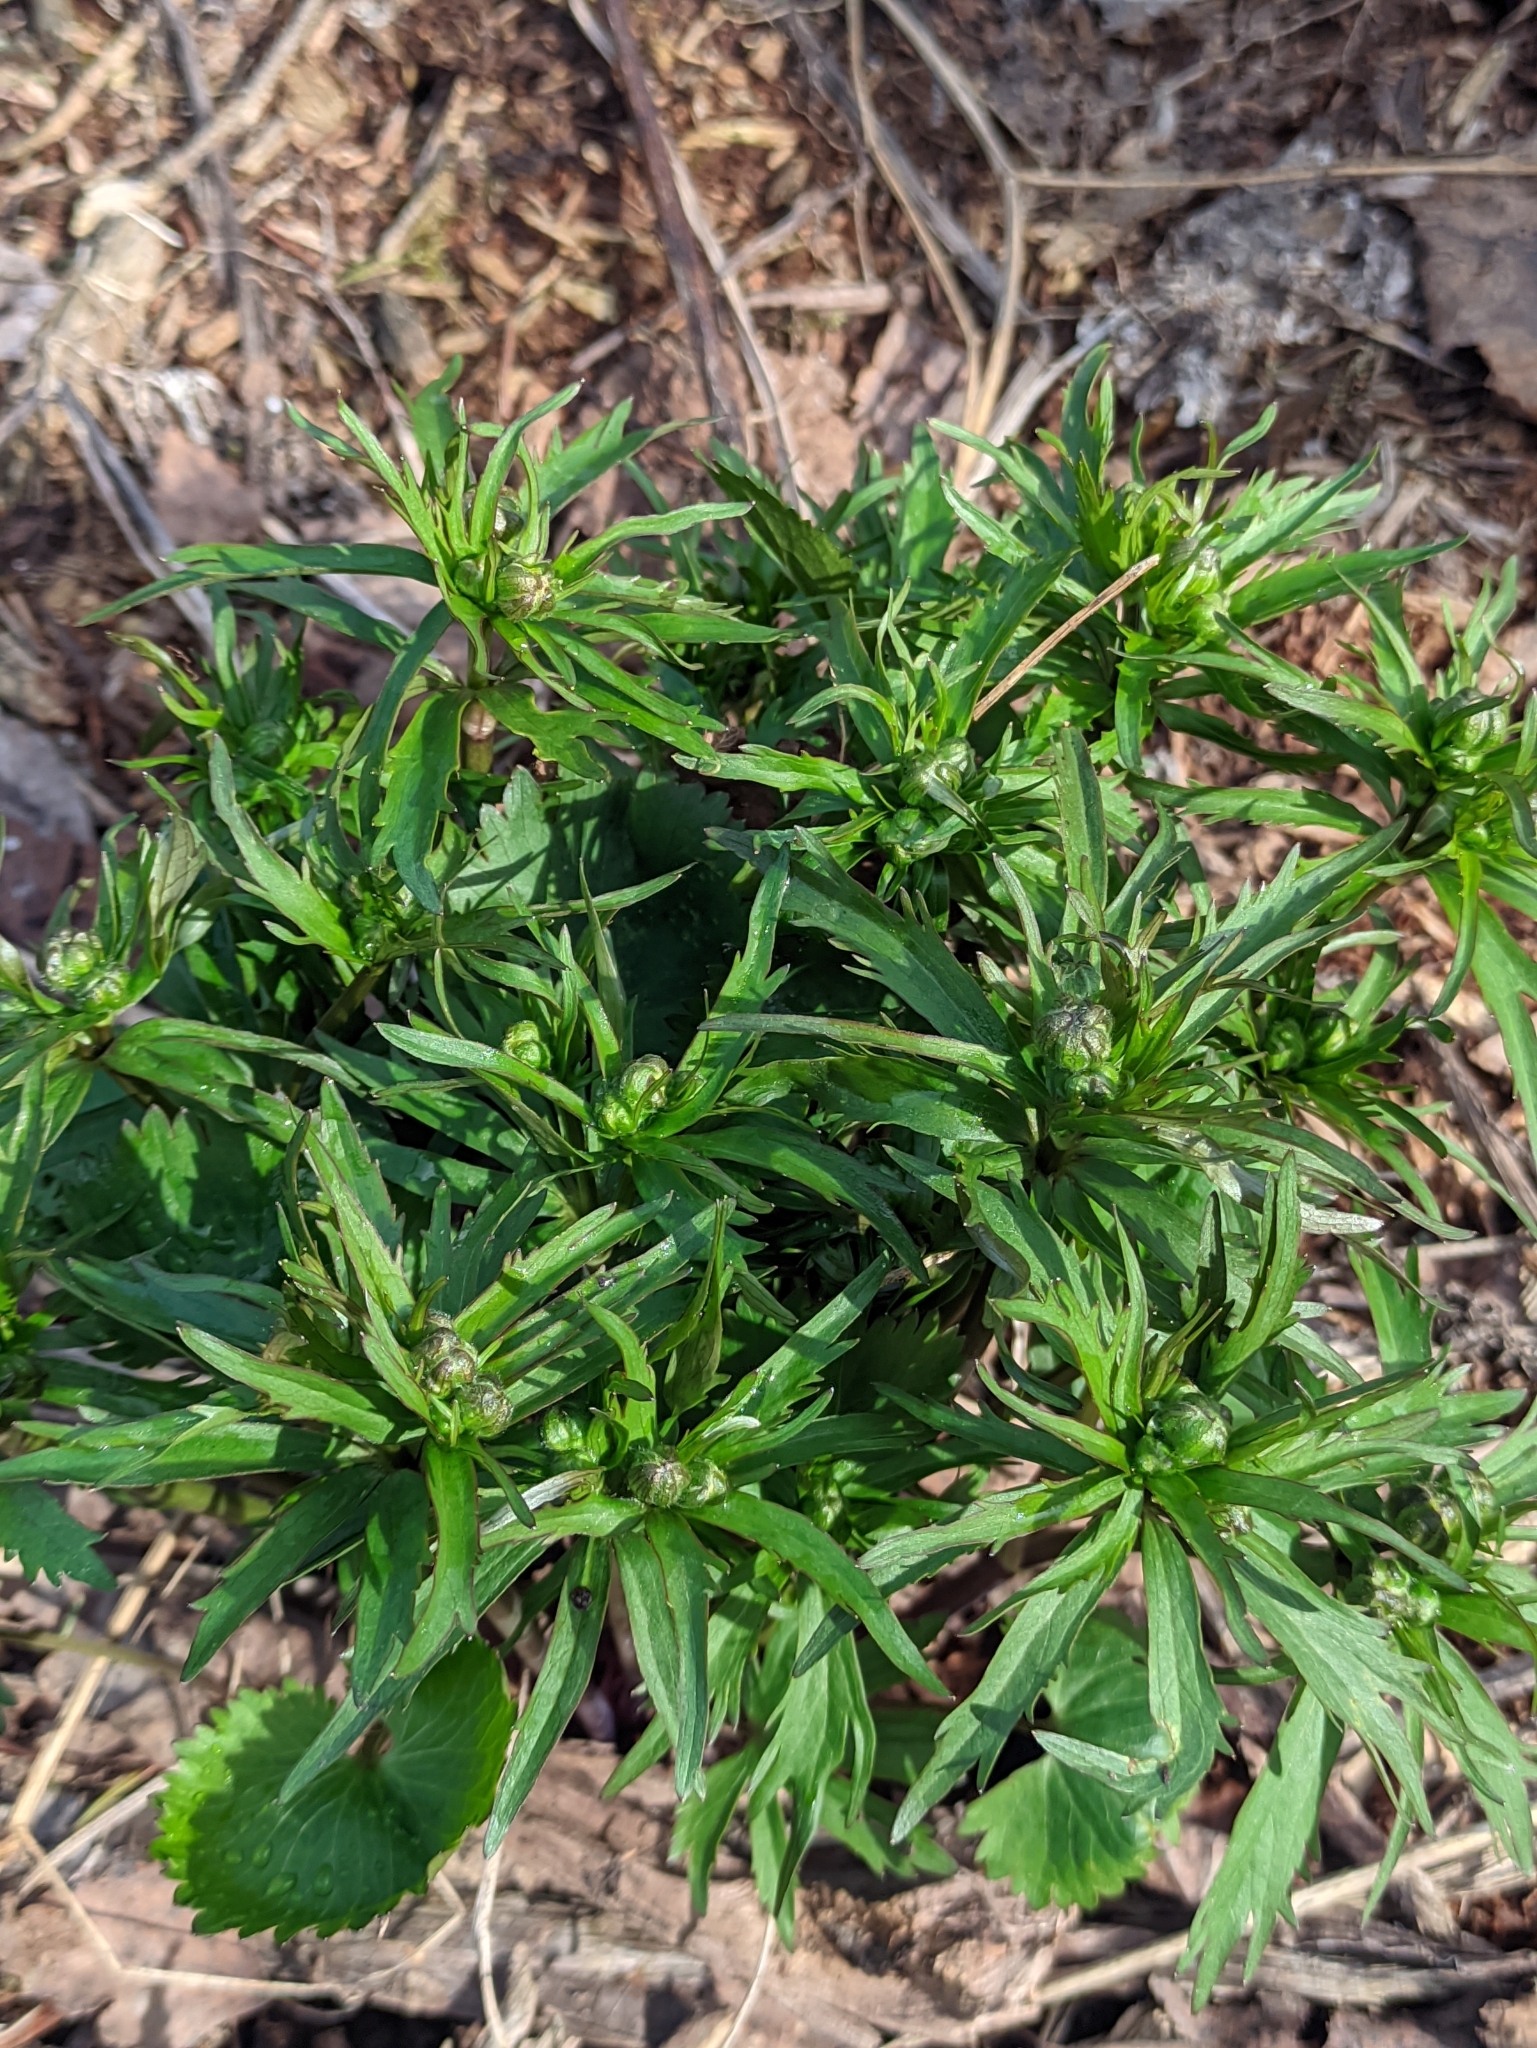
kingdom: Plantae
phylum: Tracheophyta
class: Magnoliopsida
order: Ranunculales
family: Ranunculaceae
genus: Ranunculus
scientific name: Ranunculus cassubicus
